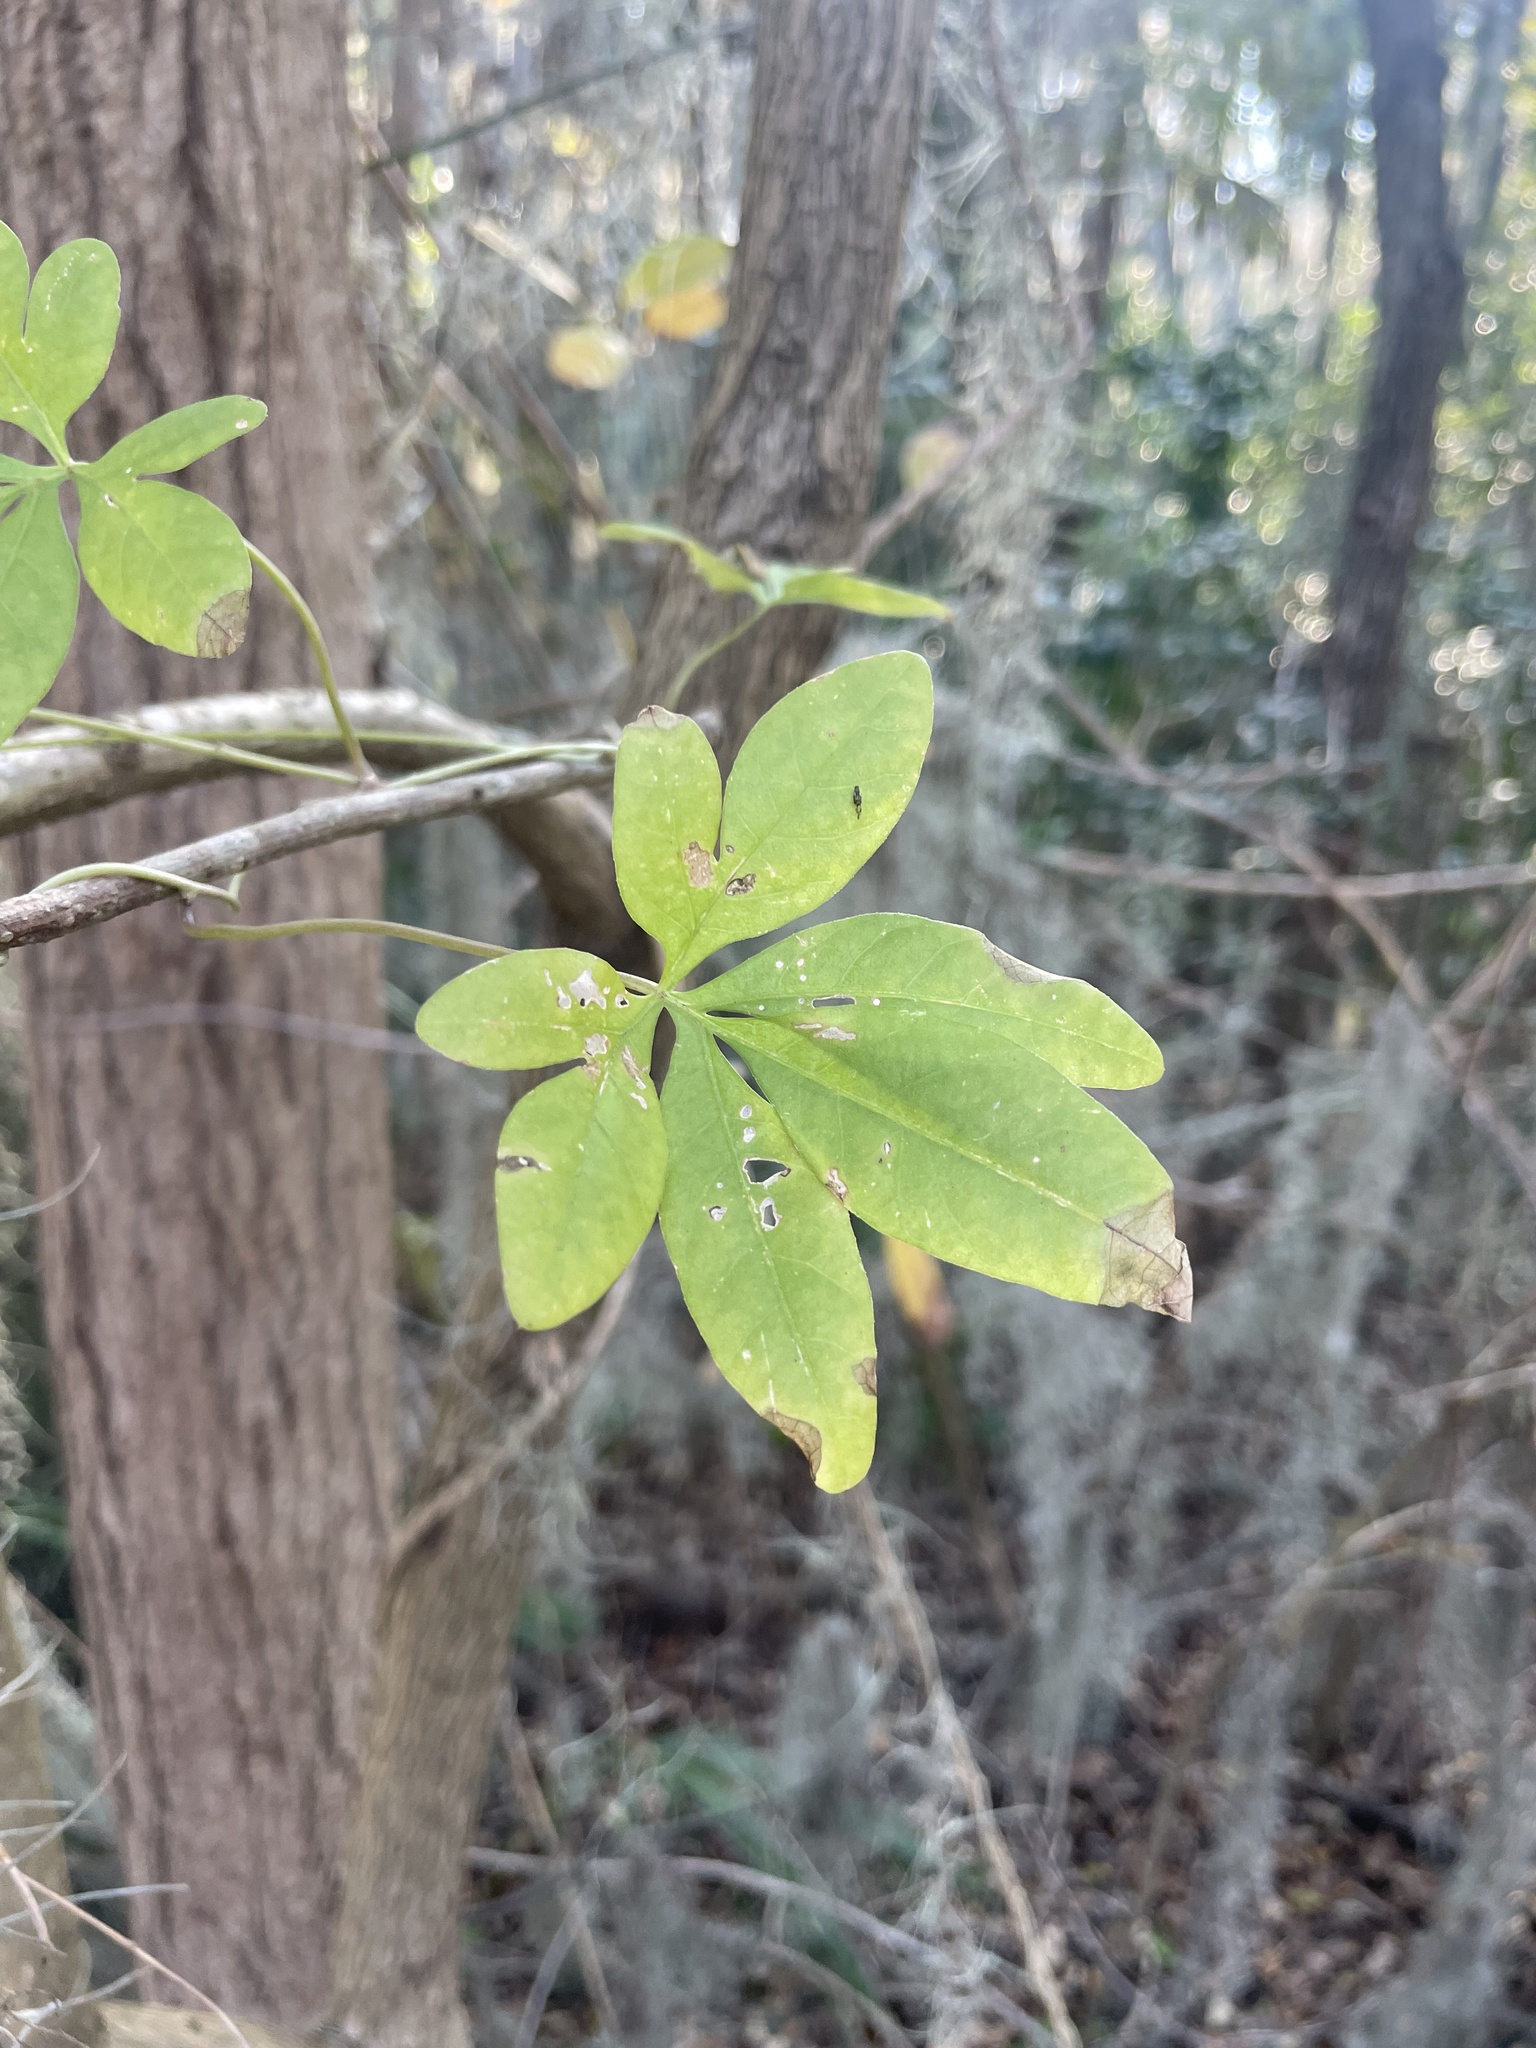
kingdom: Plantae
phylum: Tracheophyta
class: Magnoliopsida
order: Solanales
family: Convolvulaceae
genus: Ipomoea
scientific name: Ipomoea cairica
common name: Mile a minute vine
